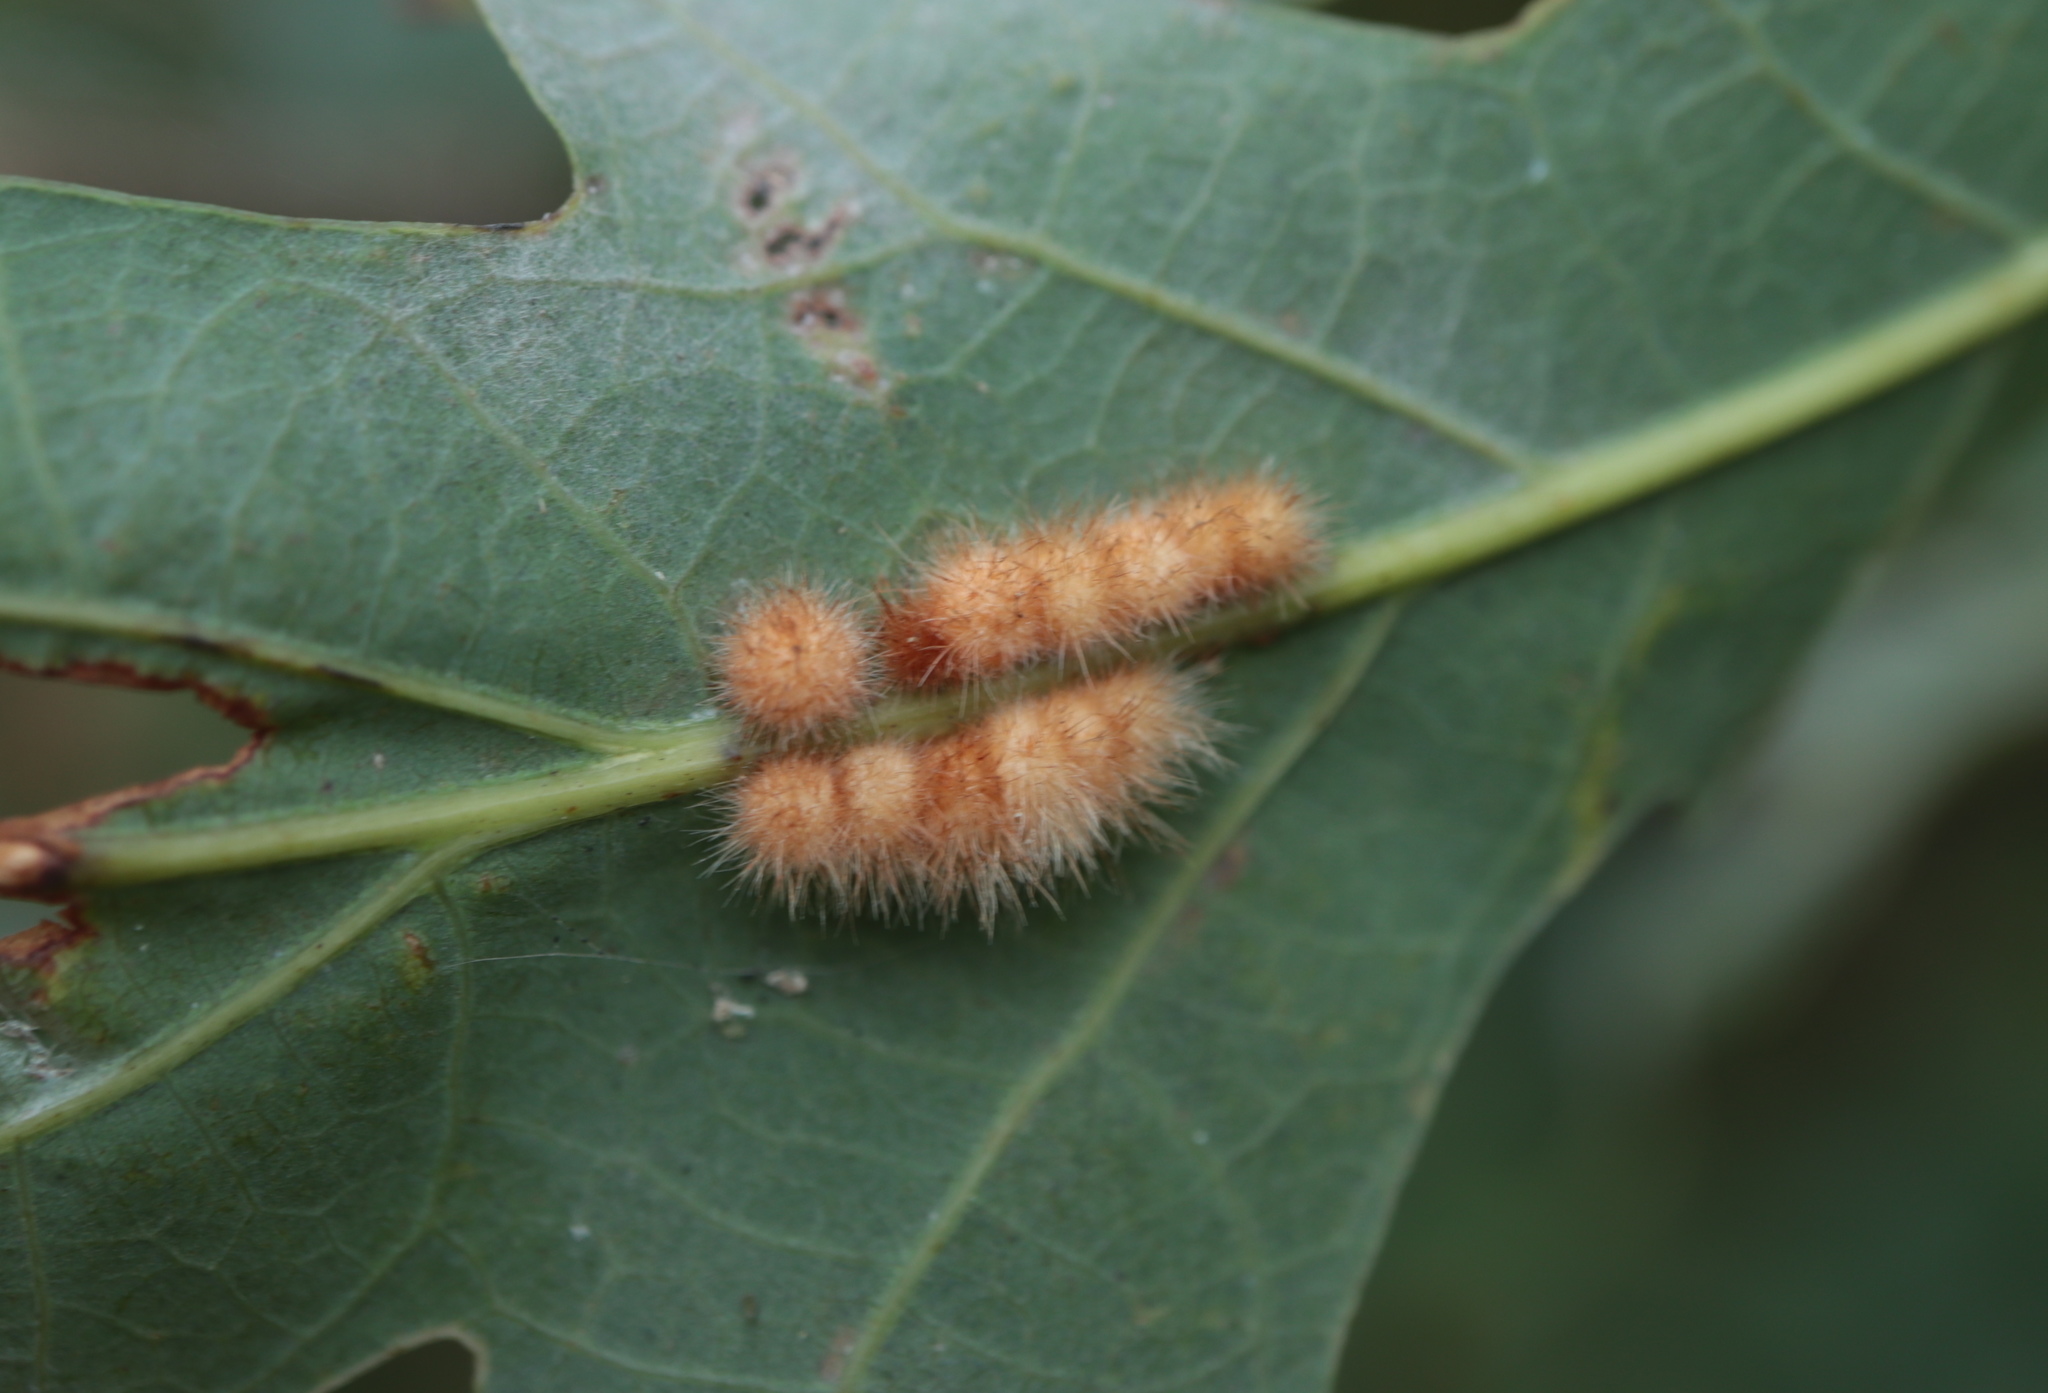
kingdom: Animalia
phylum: Arthropoda
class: Insecta
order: Hymenoptera
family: Cynipidae
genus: Andricus
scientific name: Andricus
